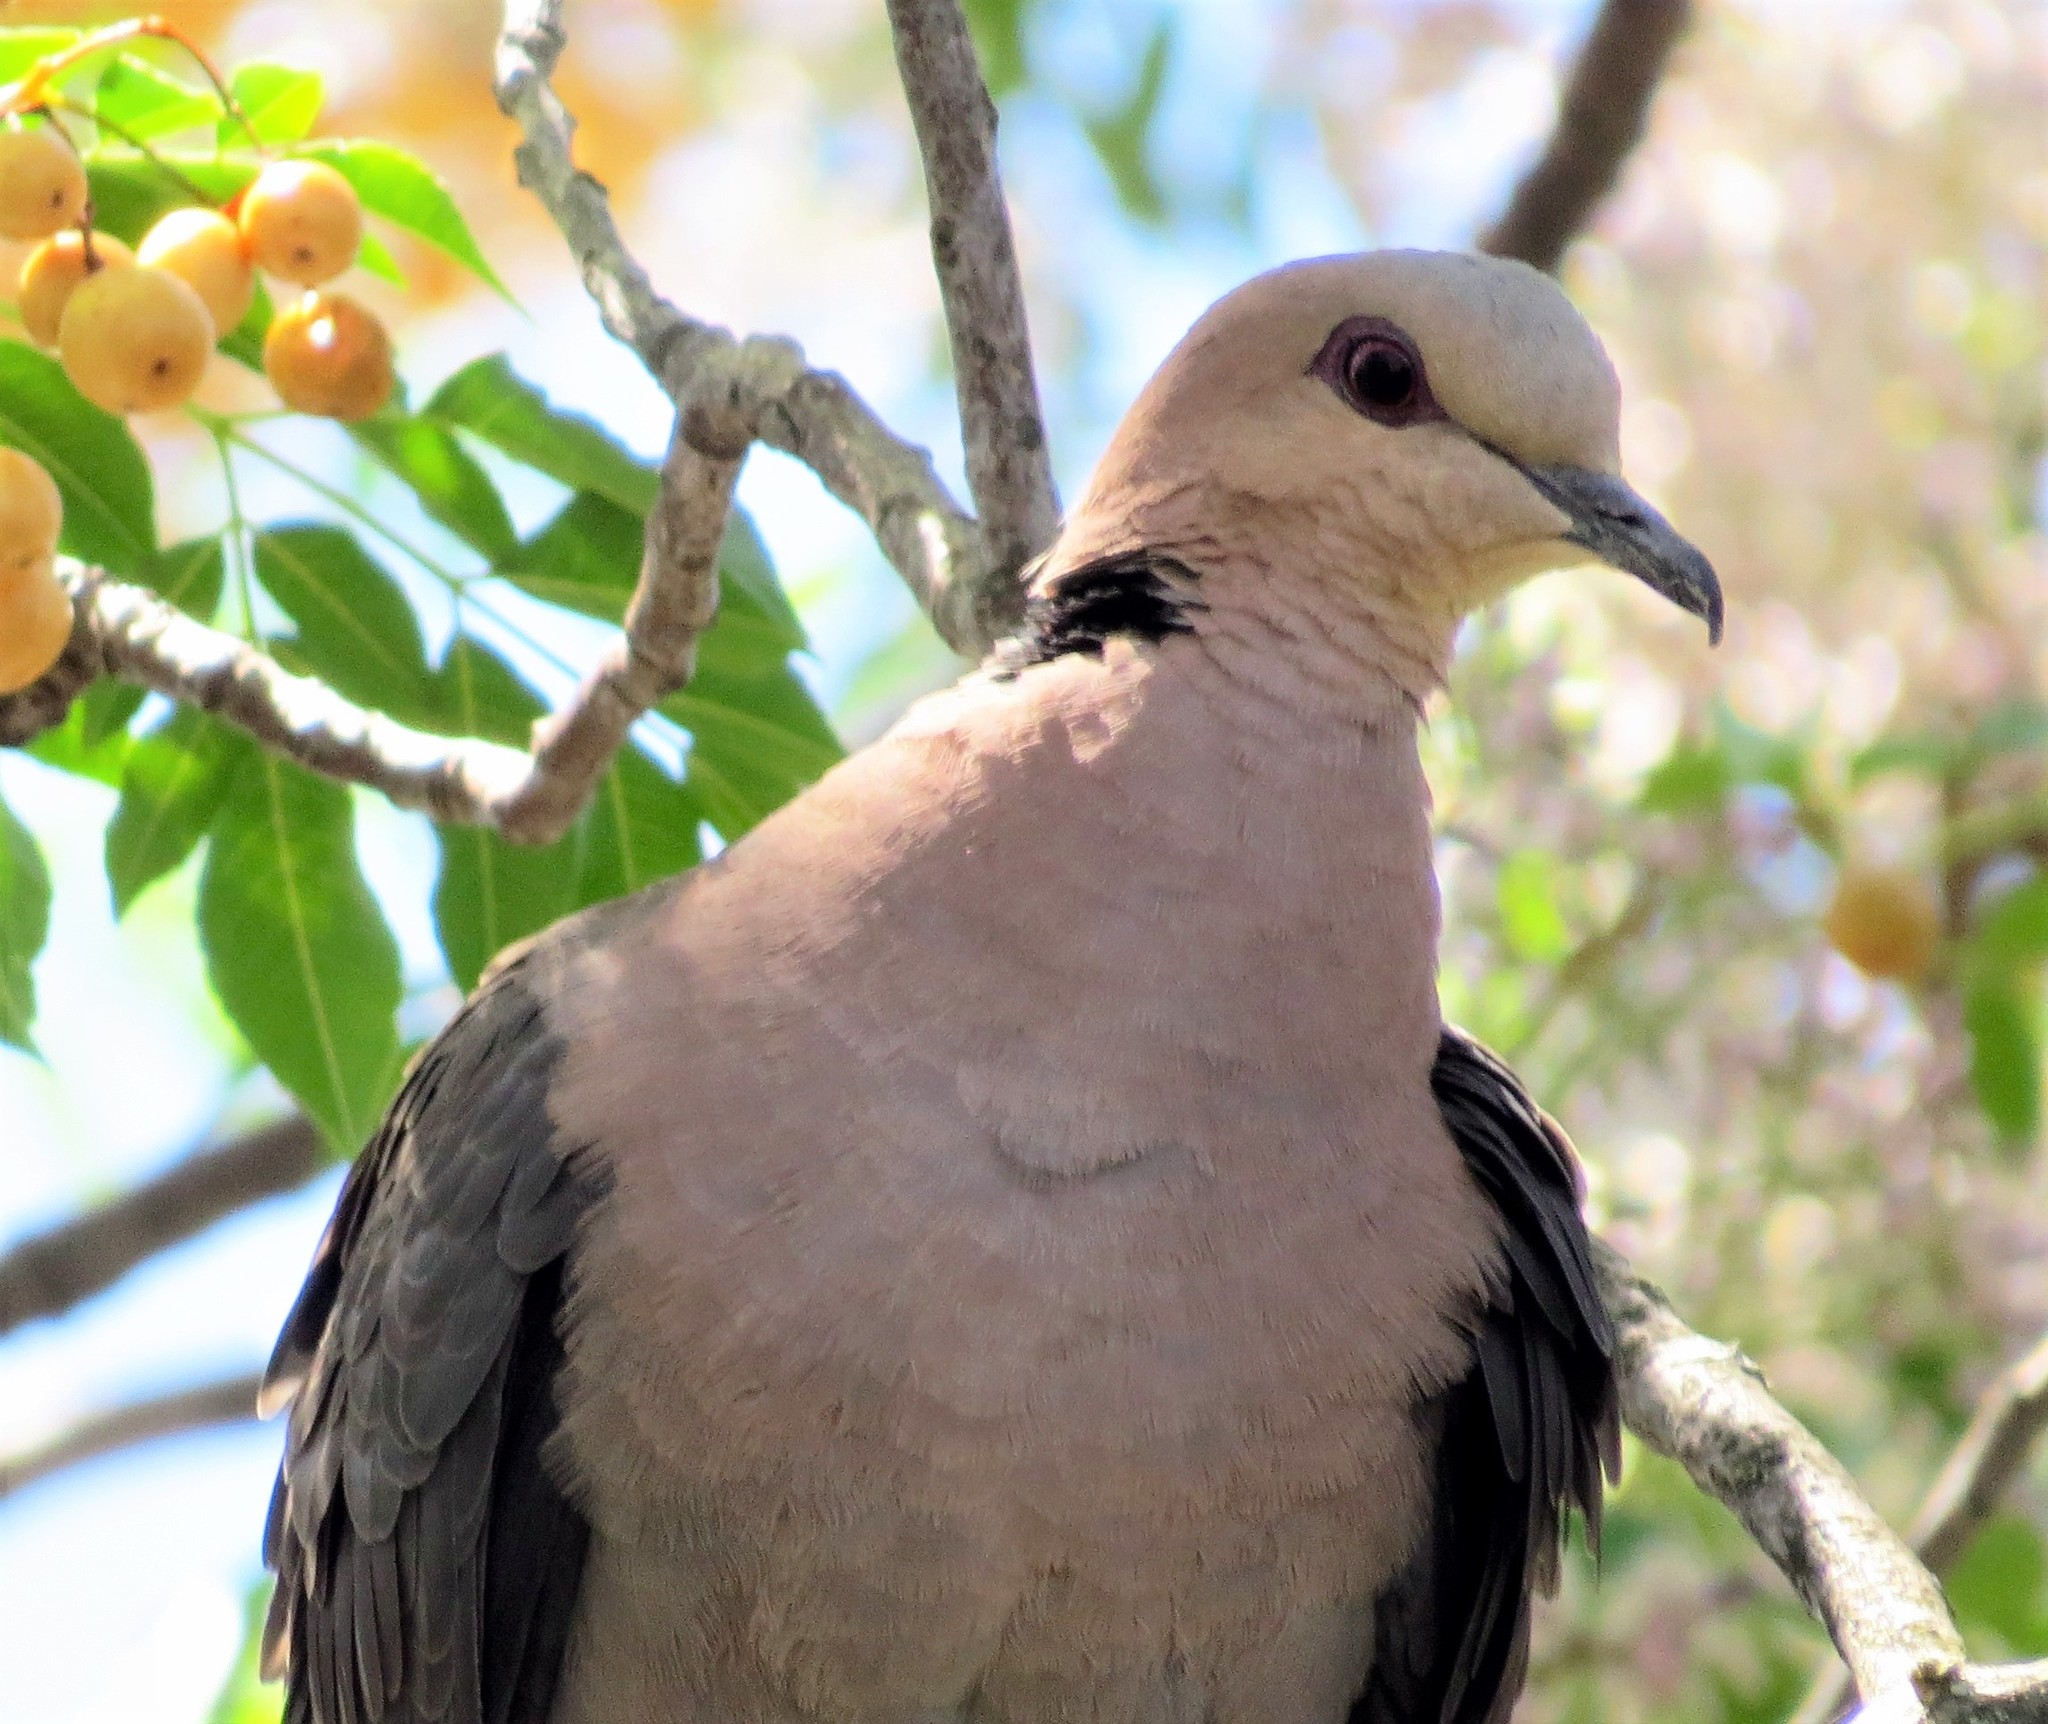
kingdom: Animalia
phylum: Chordata
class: Aves
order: Columbiformes
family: Columbidae
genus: Streptopelia
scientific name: Streptopelia semitorquata
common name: Red-eyed dove
